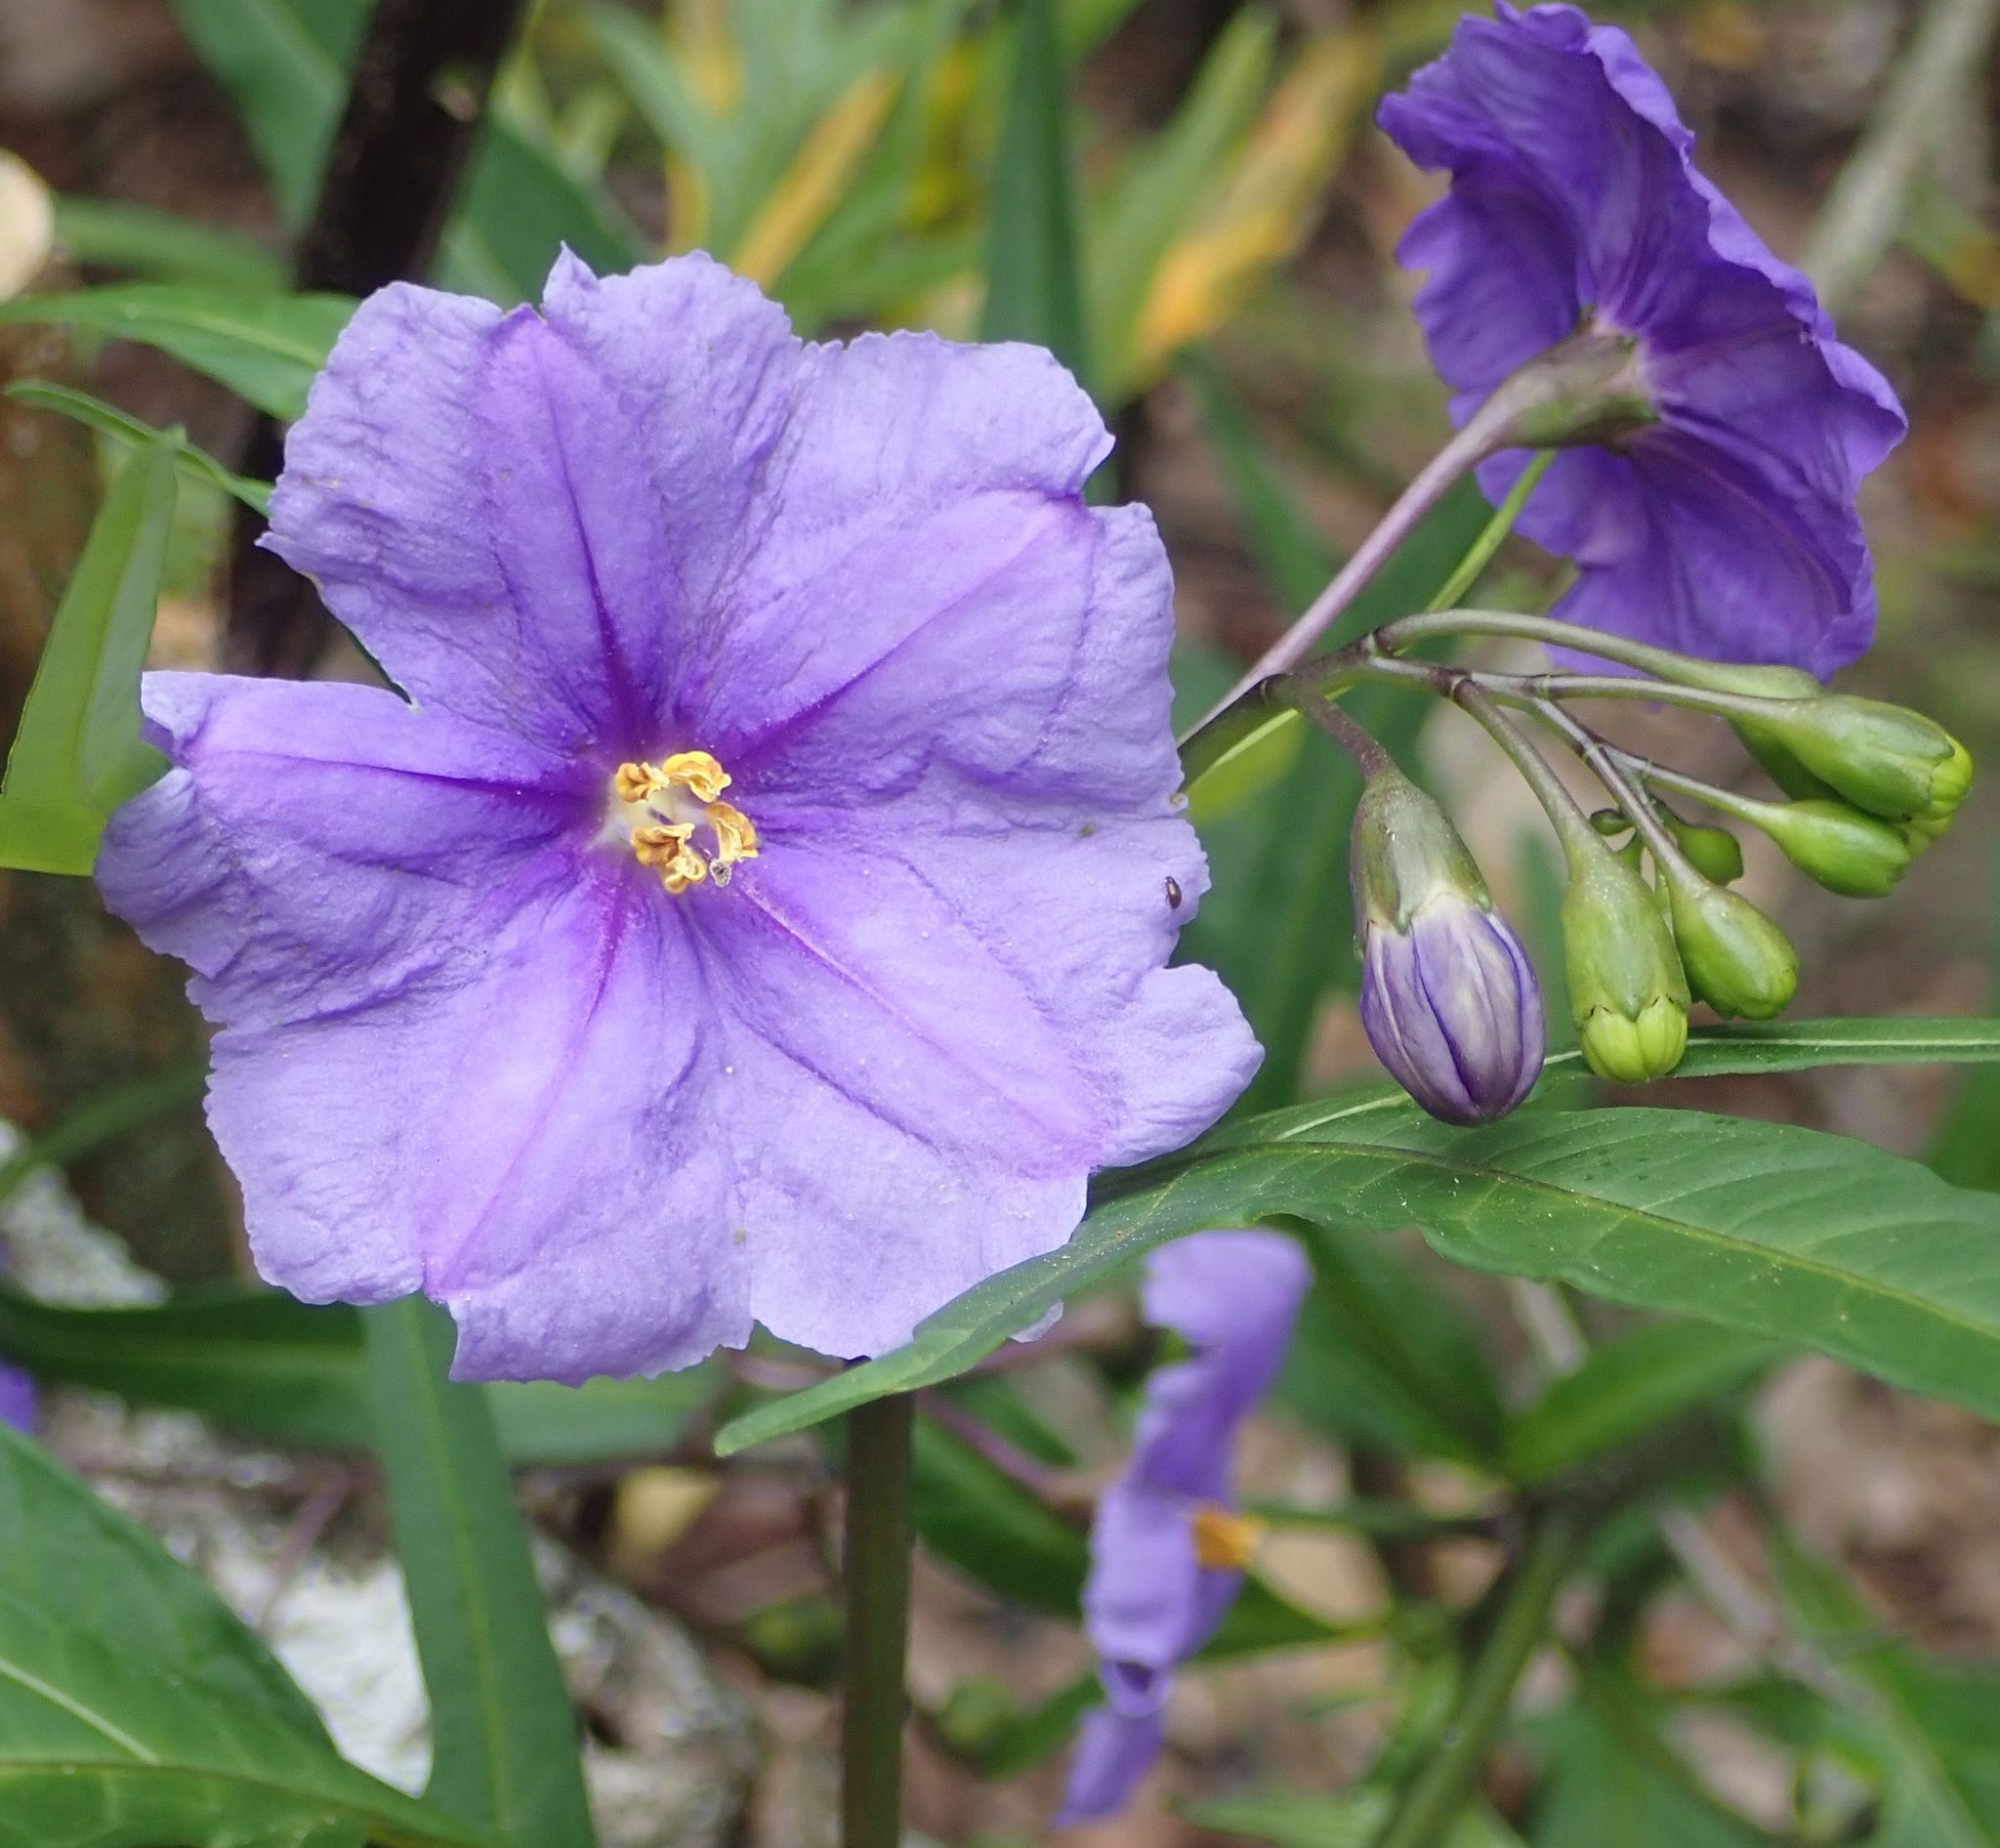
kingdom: Plantae
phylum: Tracheophyta
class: Magnoliopsida
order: Solanales
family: Solanaceae
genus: Solanum
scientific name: Solanum laciniatum
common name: Kangaroo-apple
